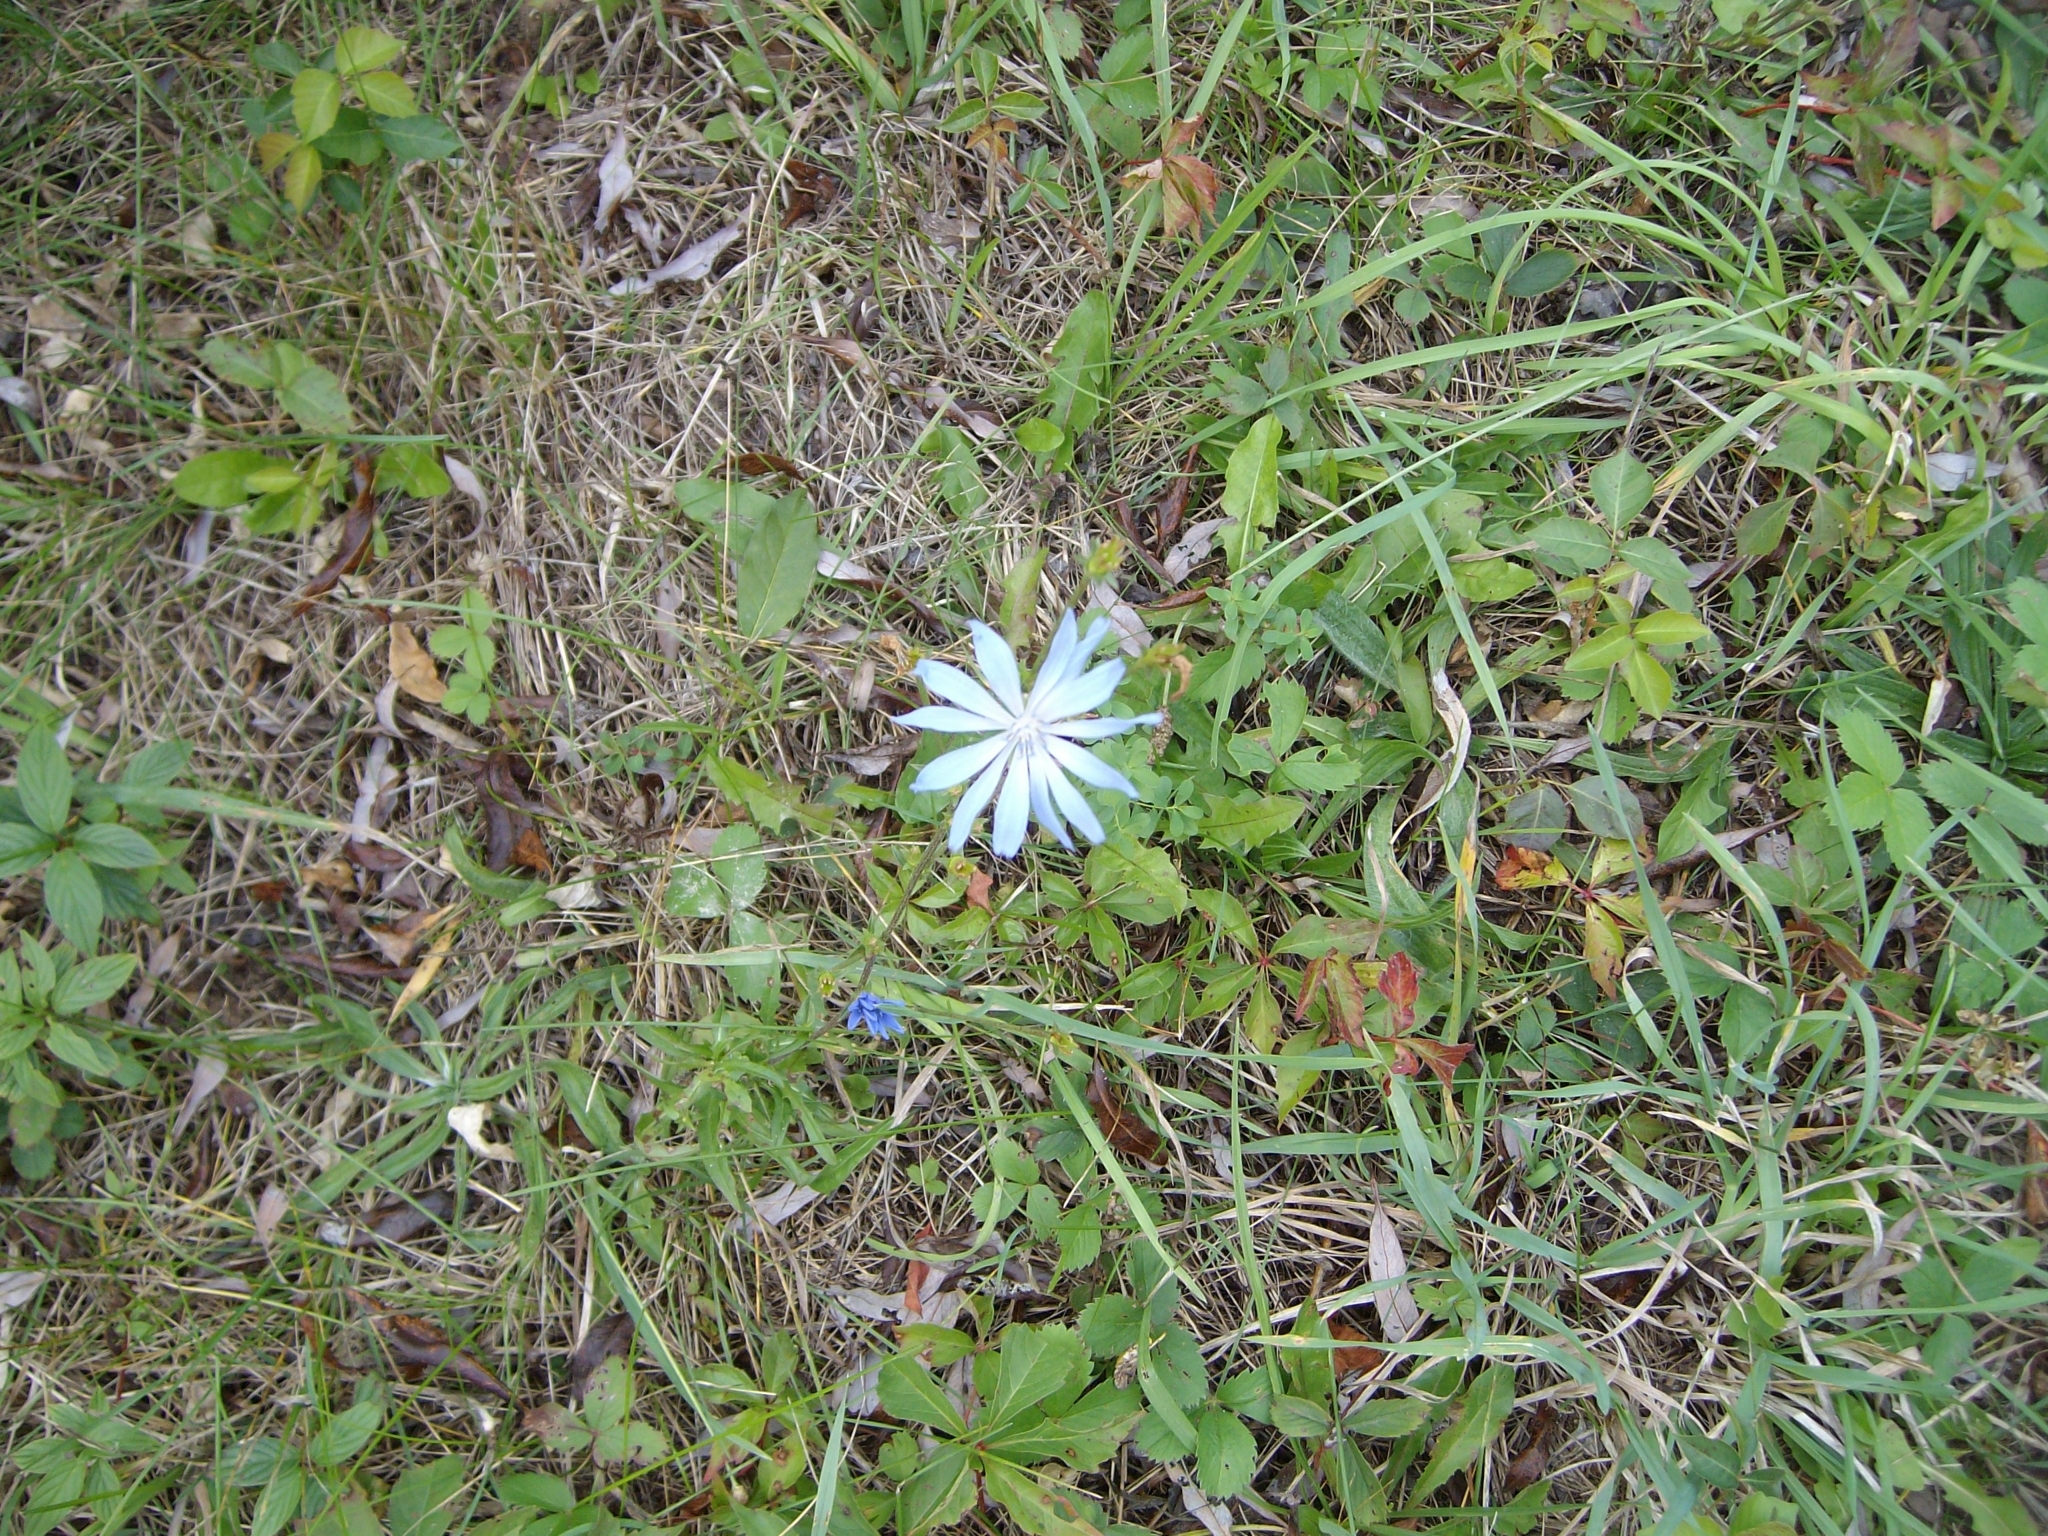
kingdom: Plantae
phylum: Tracheophyta
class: Magnoliopsida
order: Asterales
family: Asteraceae
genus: Cichorium
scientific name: Cichorium intybus
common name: Chicory
